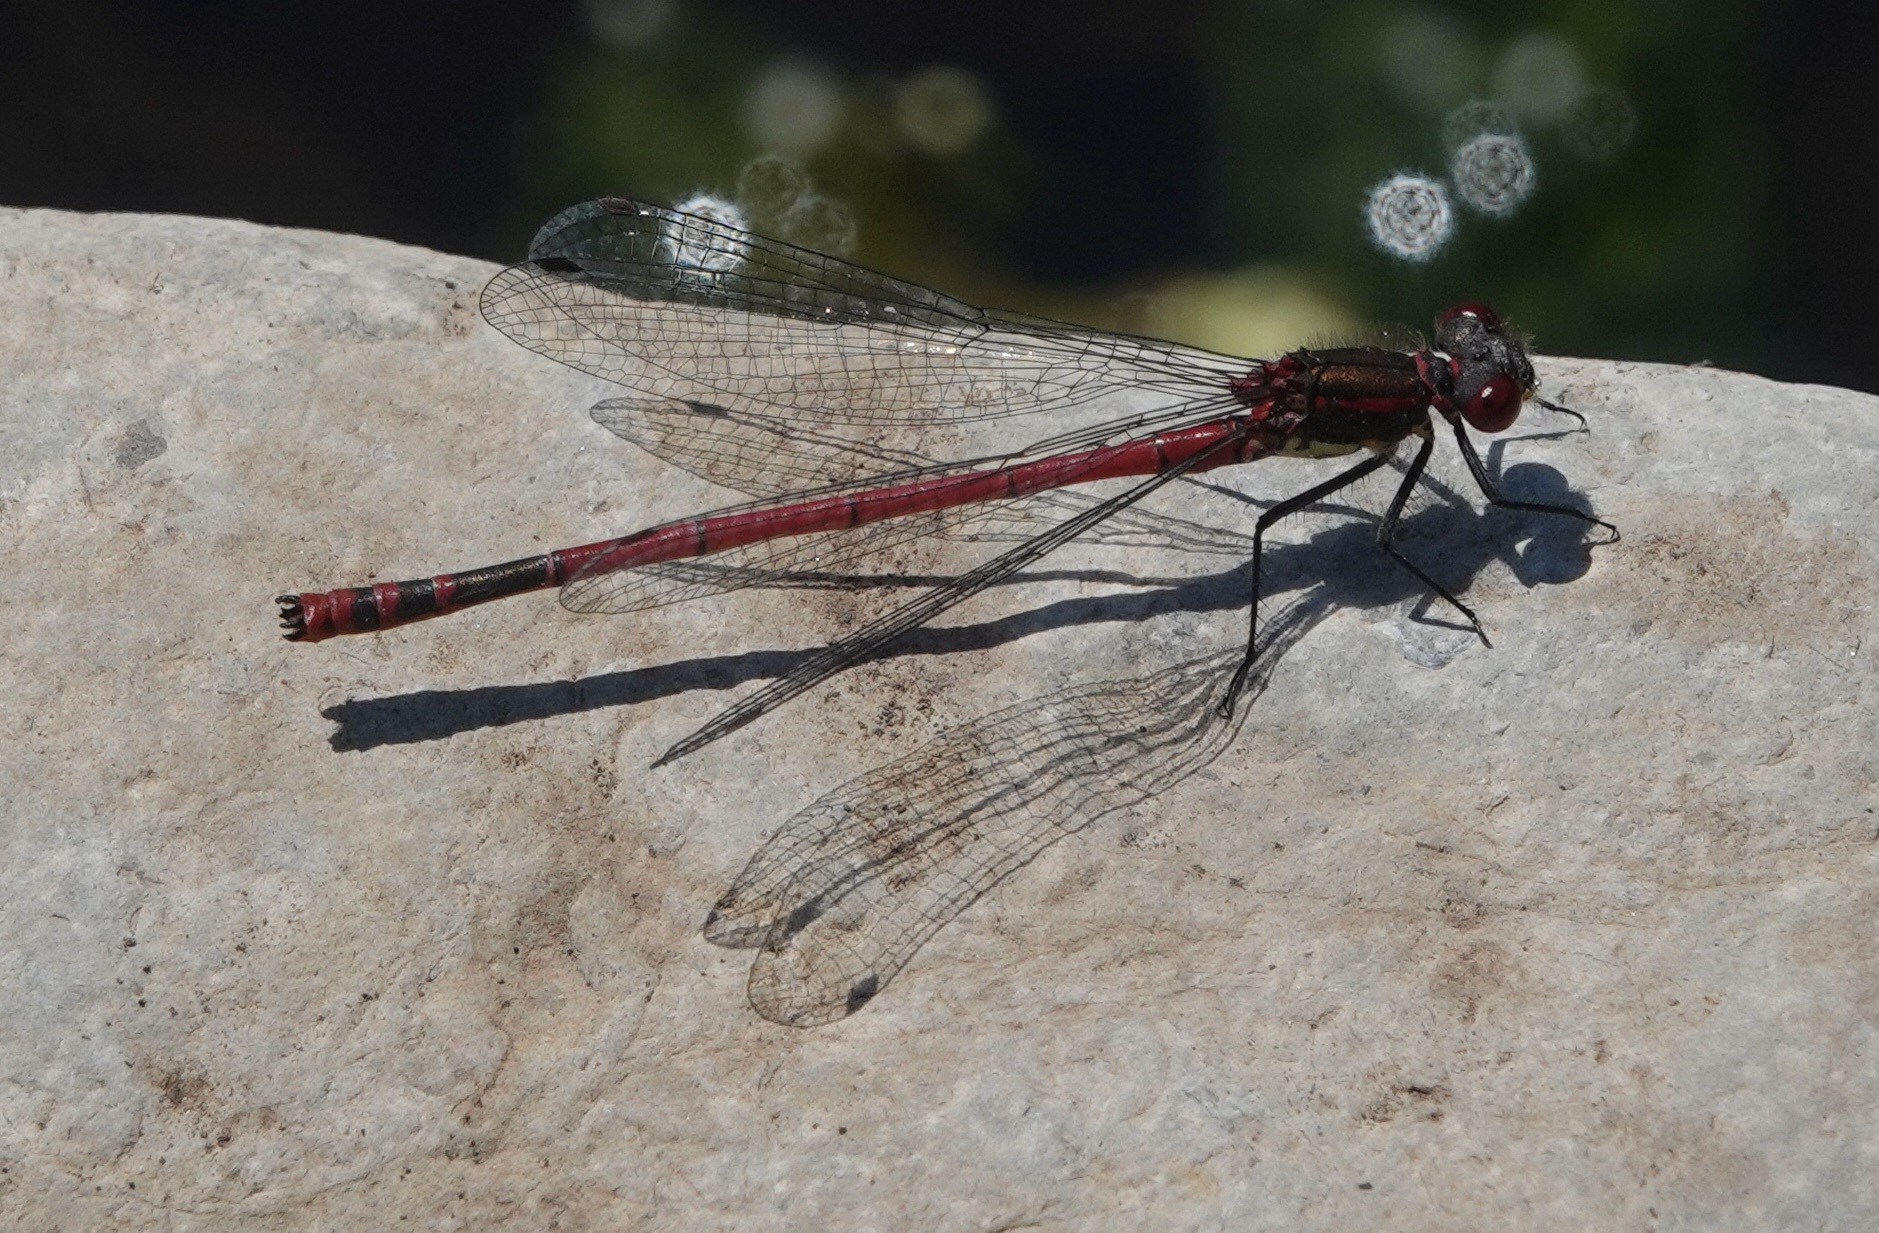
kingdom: Animalia
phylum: Arthropoda
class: Insecta
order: Odonata
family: Coenagrionidae
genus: Pyrrhosoma
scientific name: Pyrrhosoma nymphula
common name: Large red damsel
